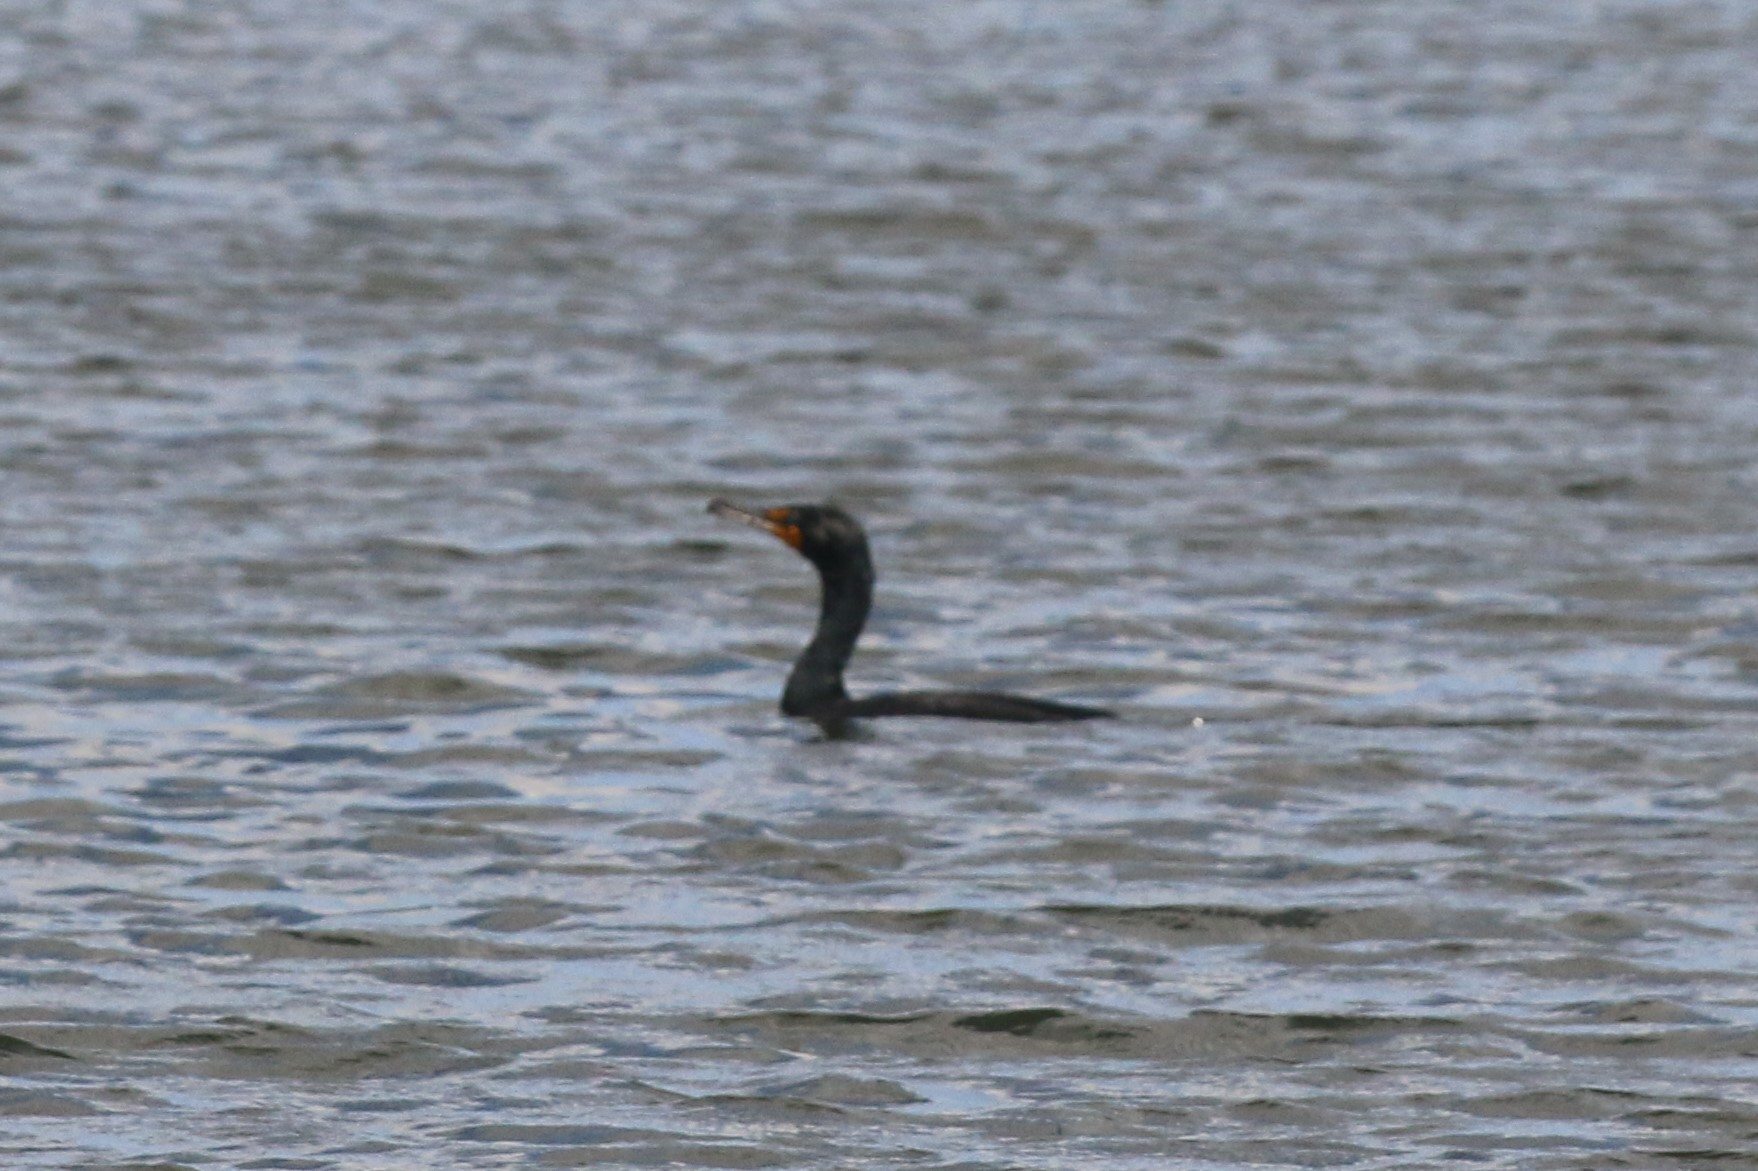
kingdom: Animalia
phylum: Chordata
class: Aves
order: Suliformes
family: Phalacrocoracidae
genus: Phalacrocorax
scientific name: Phalacrocorax auritus
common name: Double-crested cormorant
